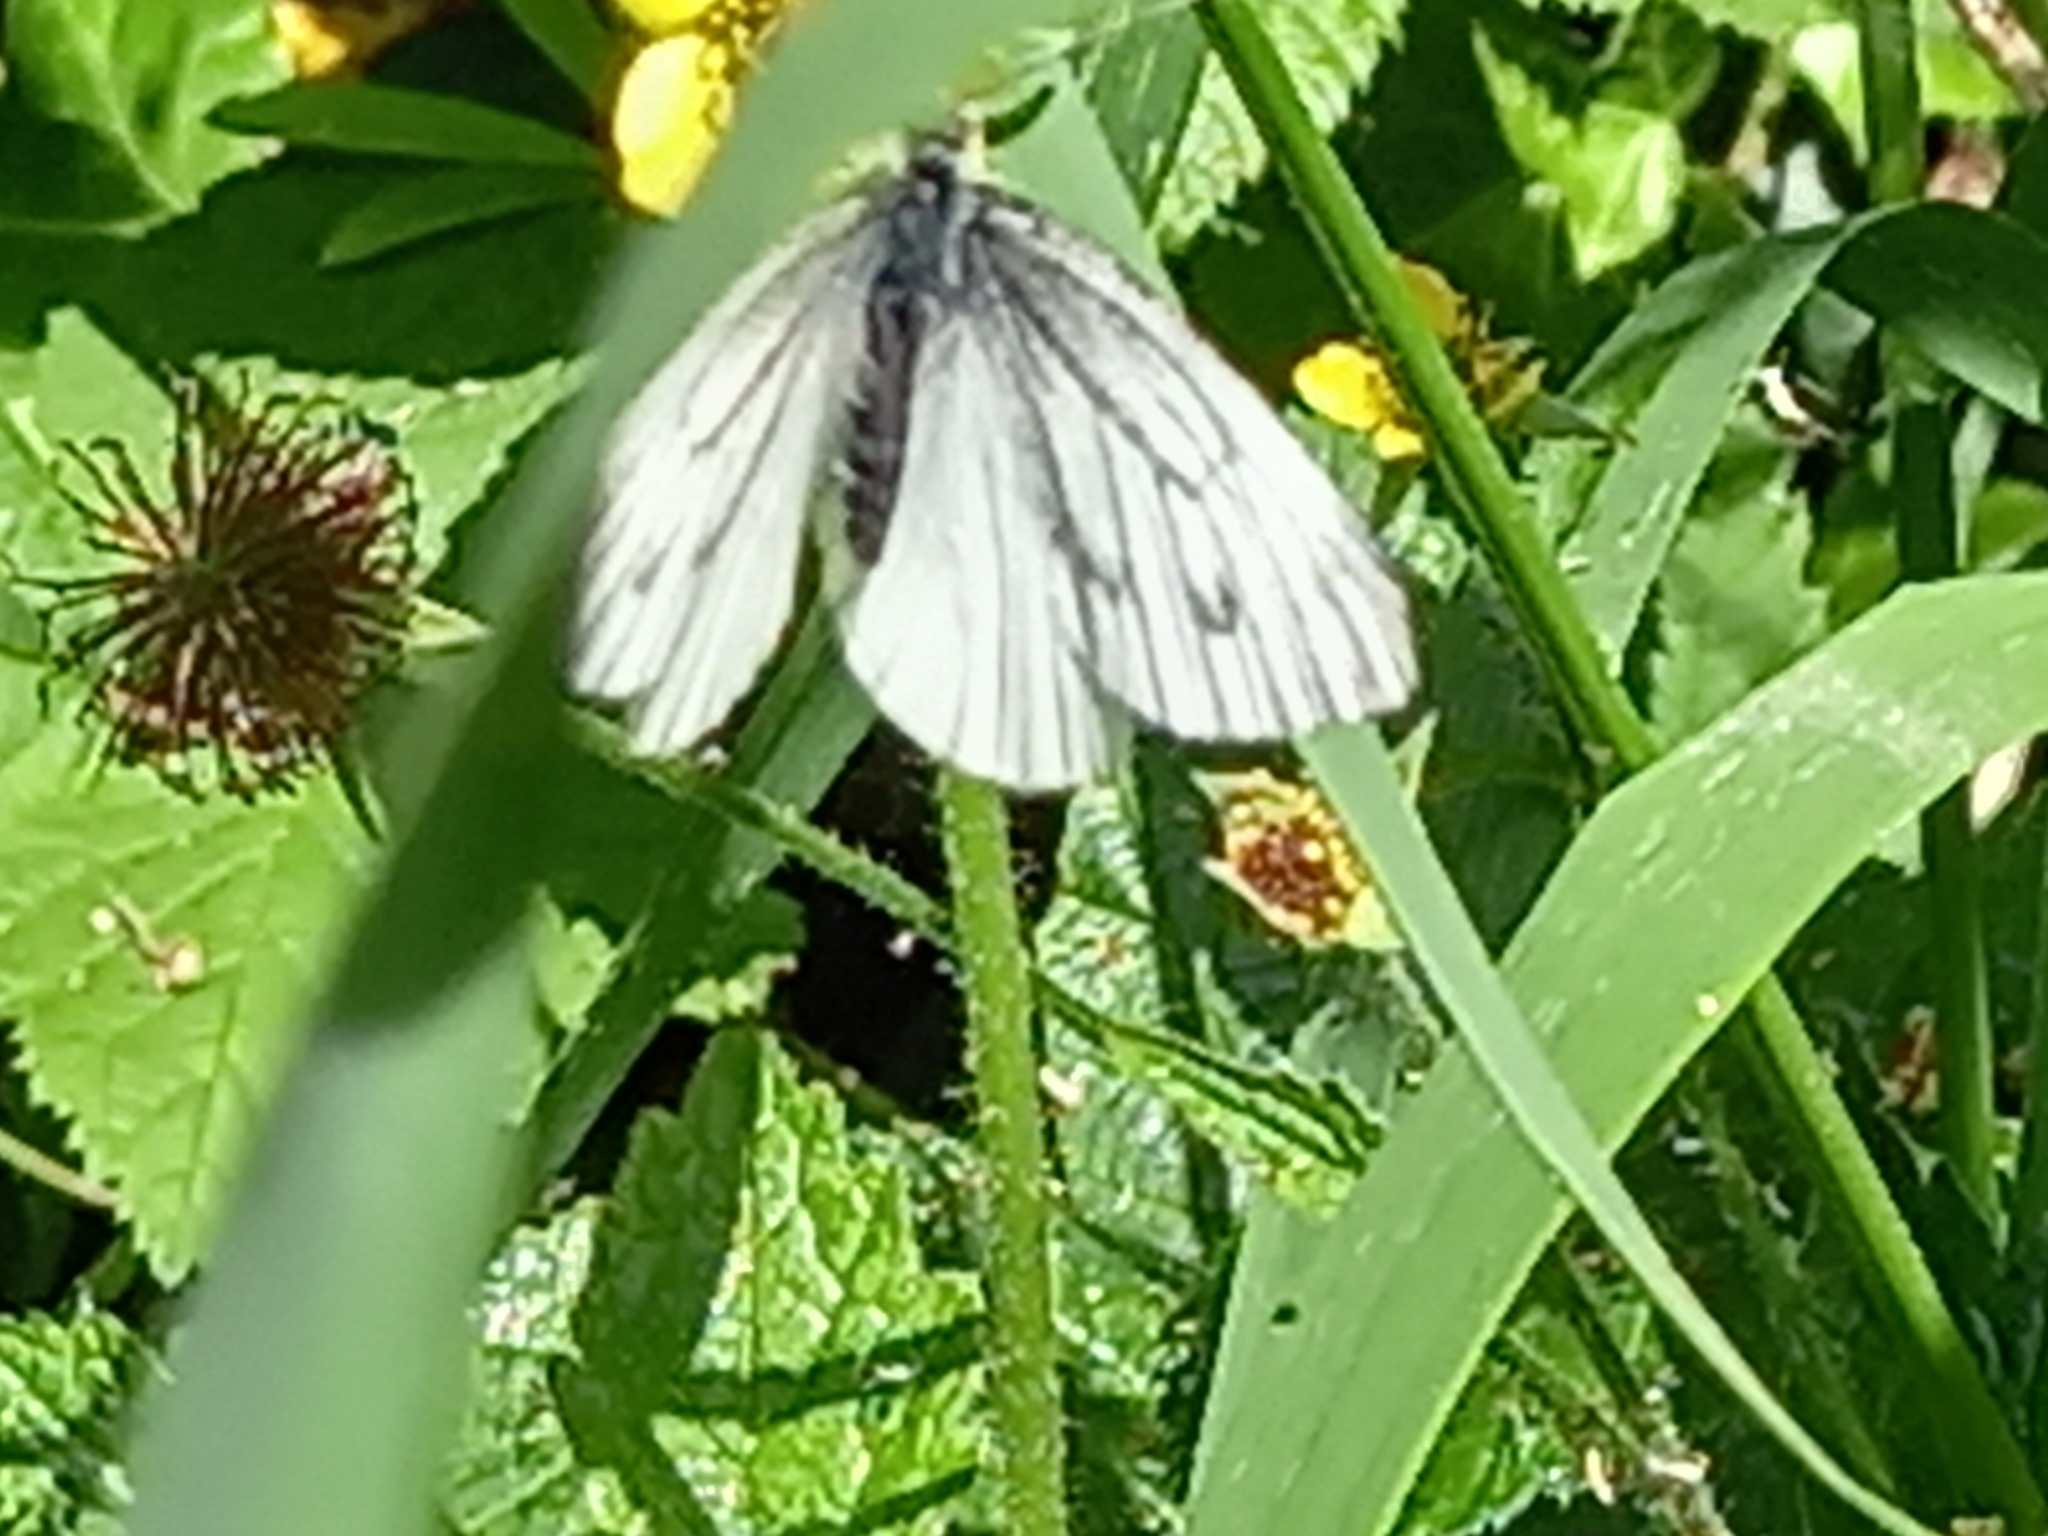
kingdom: Animalia
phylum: Arthropoda
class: Insecta
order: Lepidoptera
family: Pieridae
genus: Pieris
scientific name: Pieris napi
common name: Green-veined white
